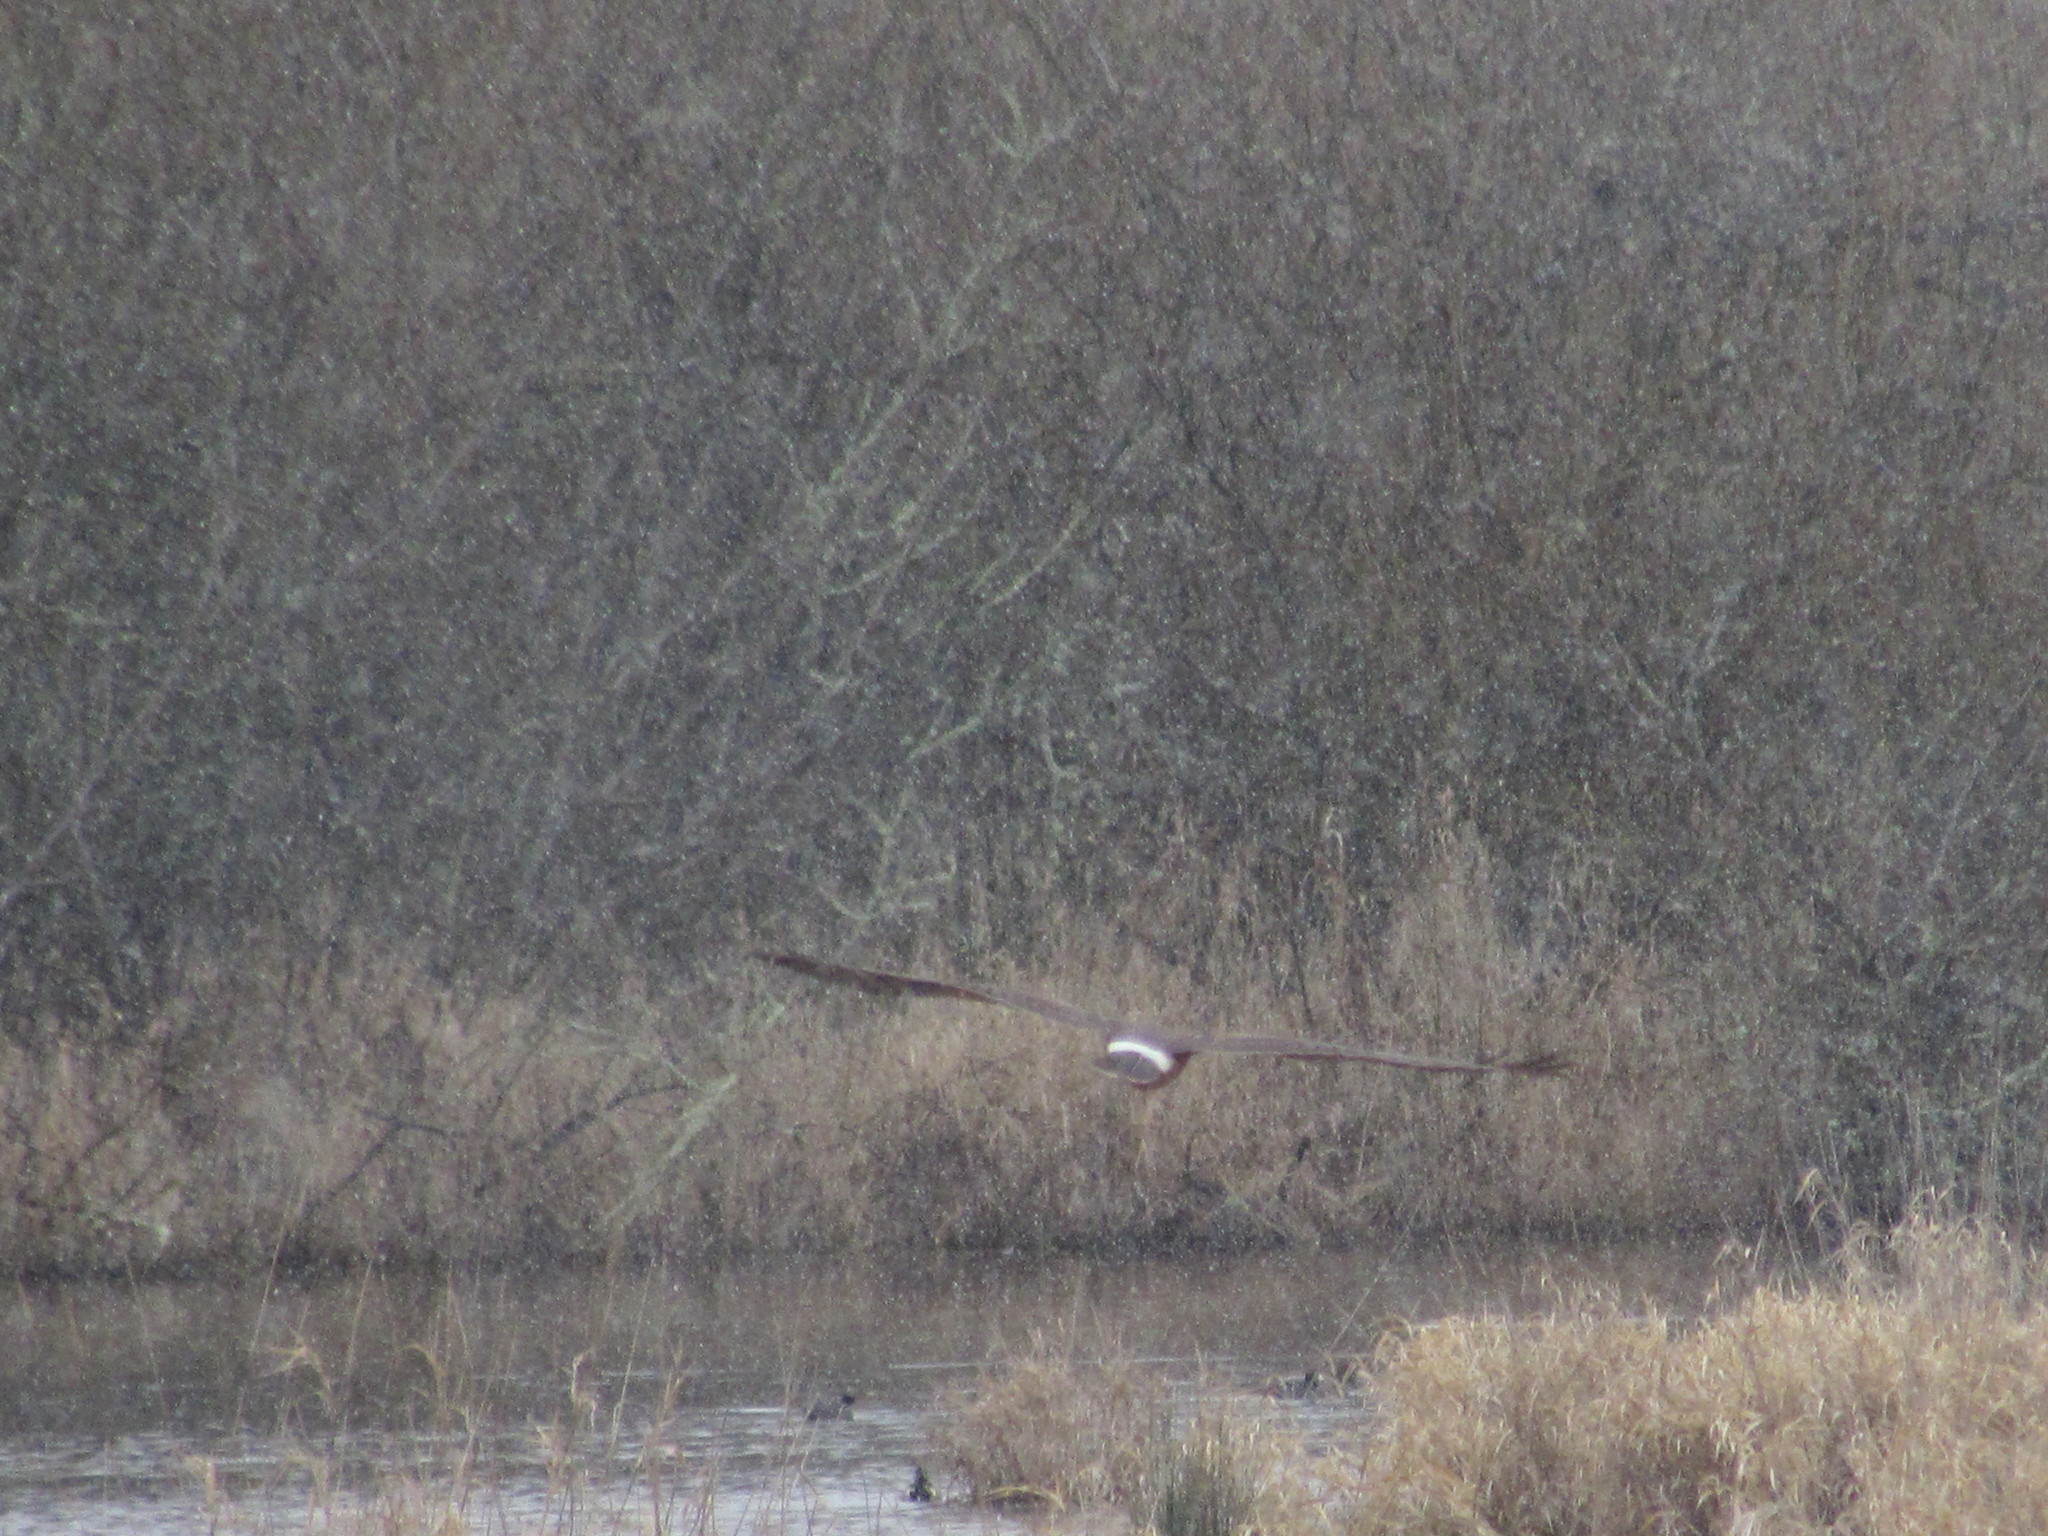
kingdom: Animalia
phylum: Chordata
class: Aves
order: Accipitriformes
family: Accipitridae
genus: Circus
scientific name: Circus cyaneus
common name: Hen harrier
